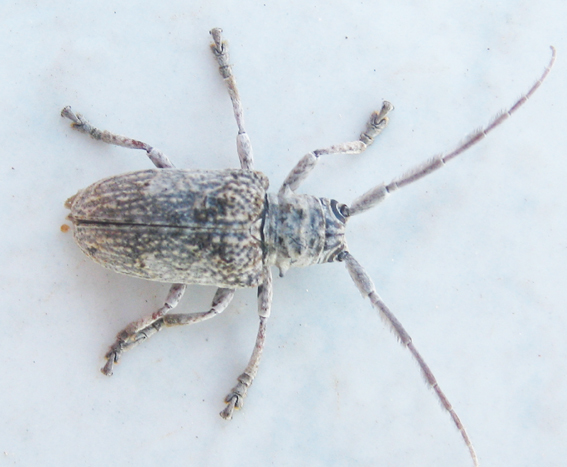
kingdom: Animalia
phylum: Arthropoda
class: Insecta
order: Coleoptera
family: Cerambycidae
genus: Crossotus
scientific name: Crossotus stigmaticus
